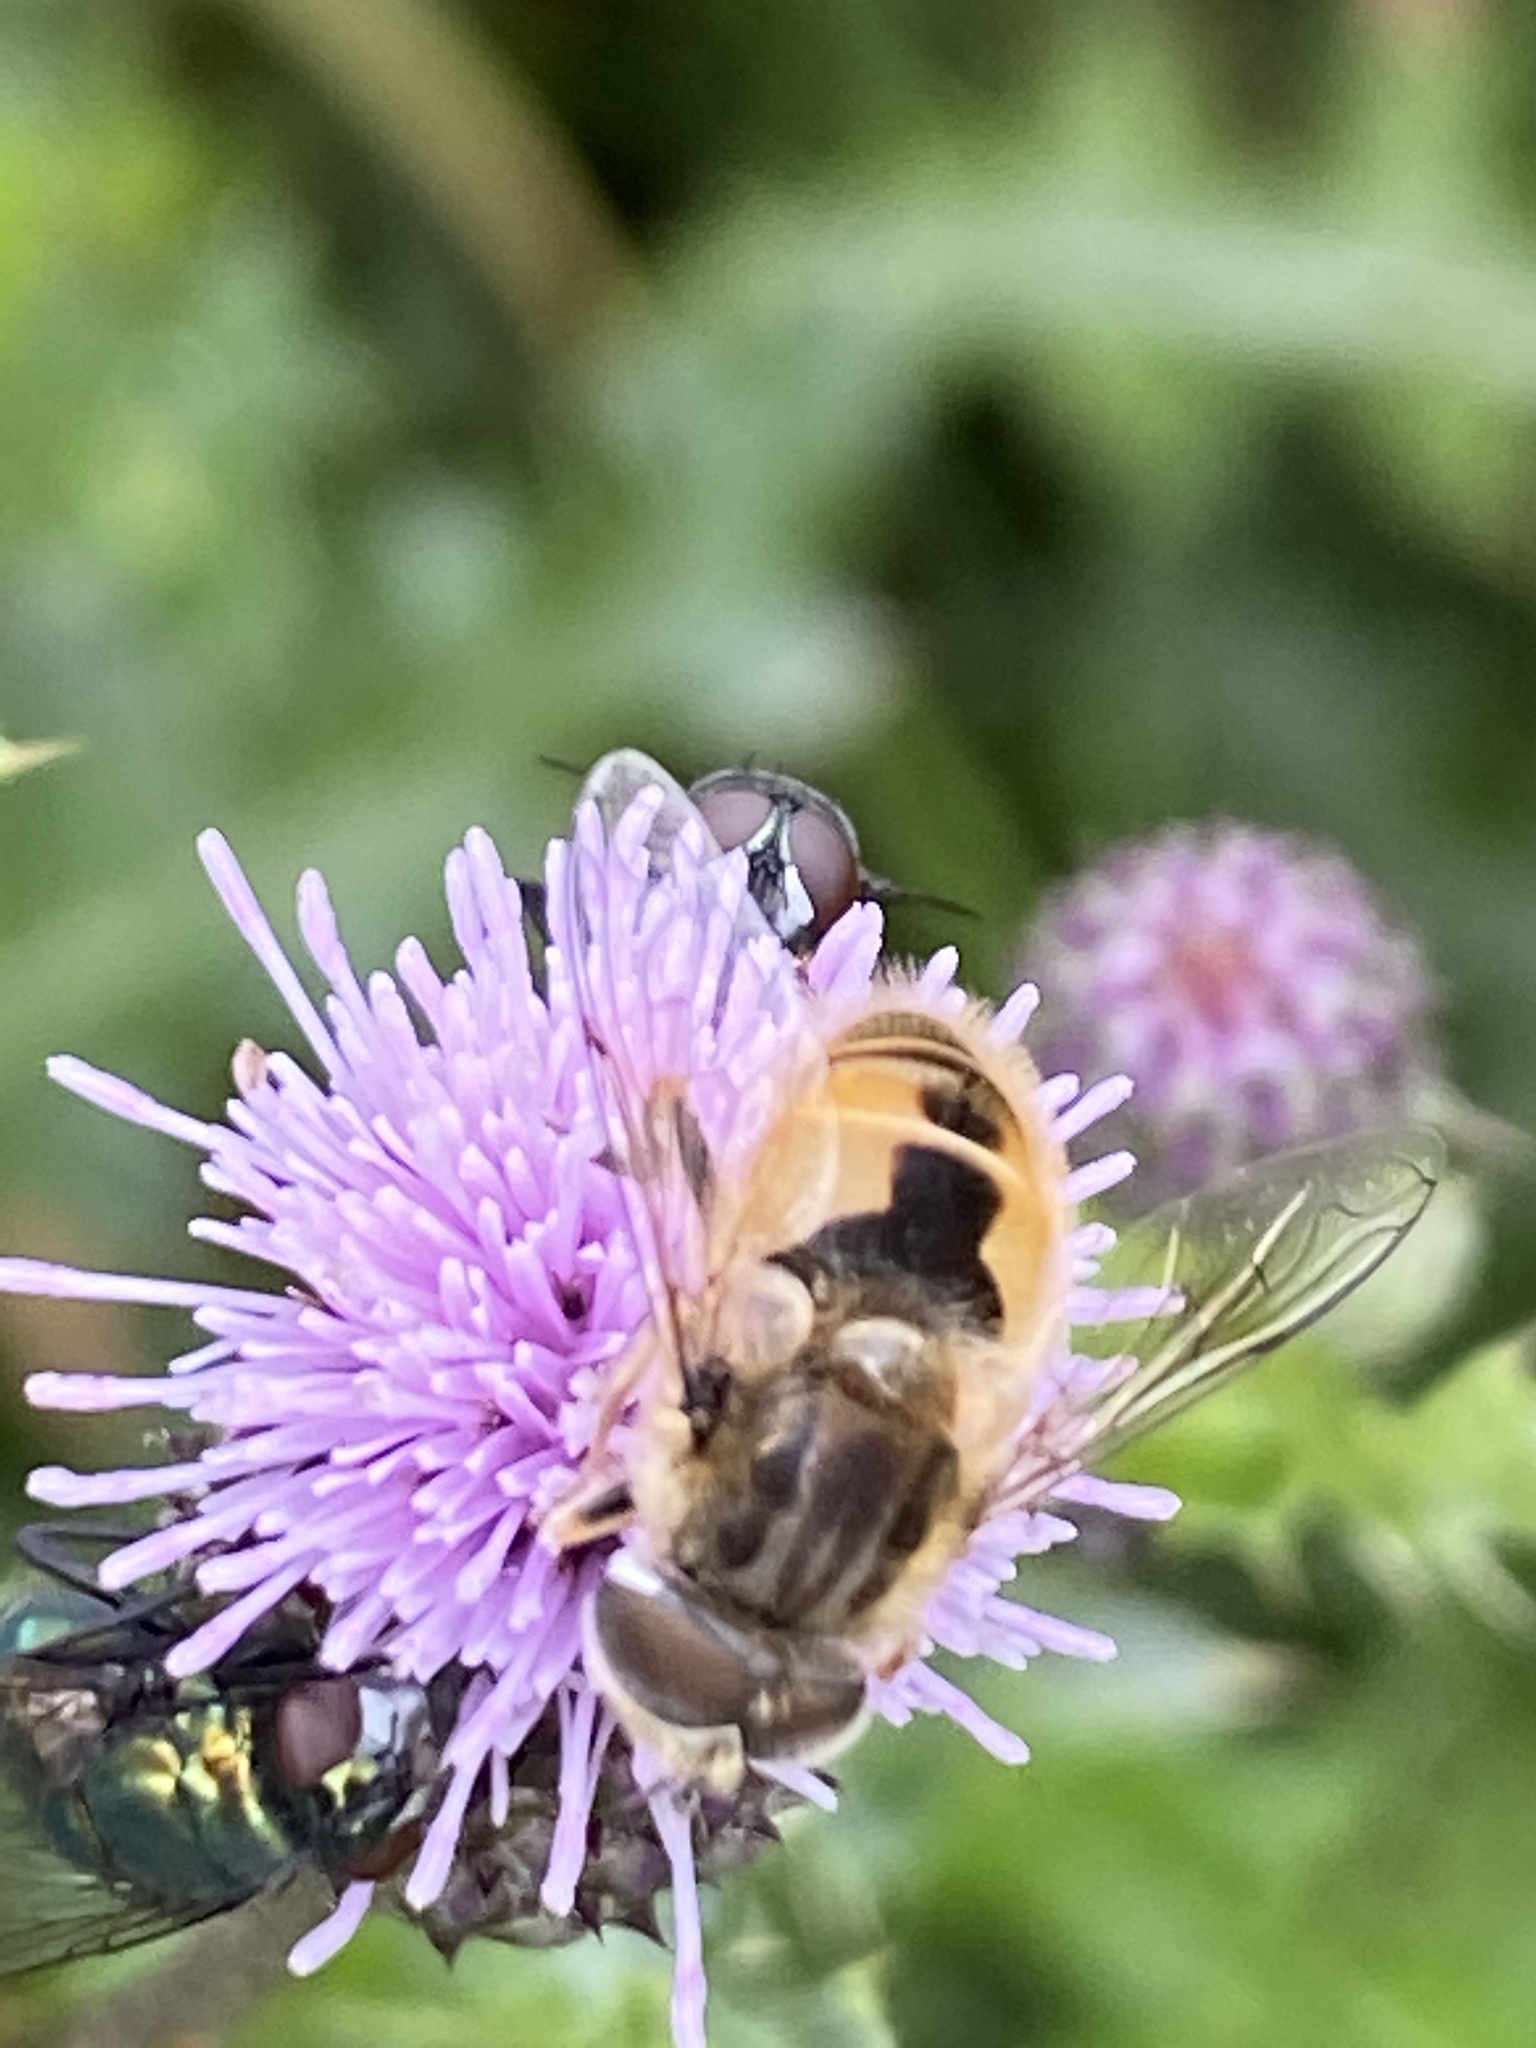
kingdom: Animalia
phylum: Arthropoda
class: Insecta
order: Diptera
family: Syrphidae
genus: Eristalis
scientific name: Eristalis abusivus
